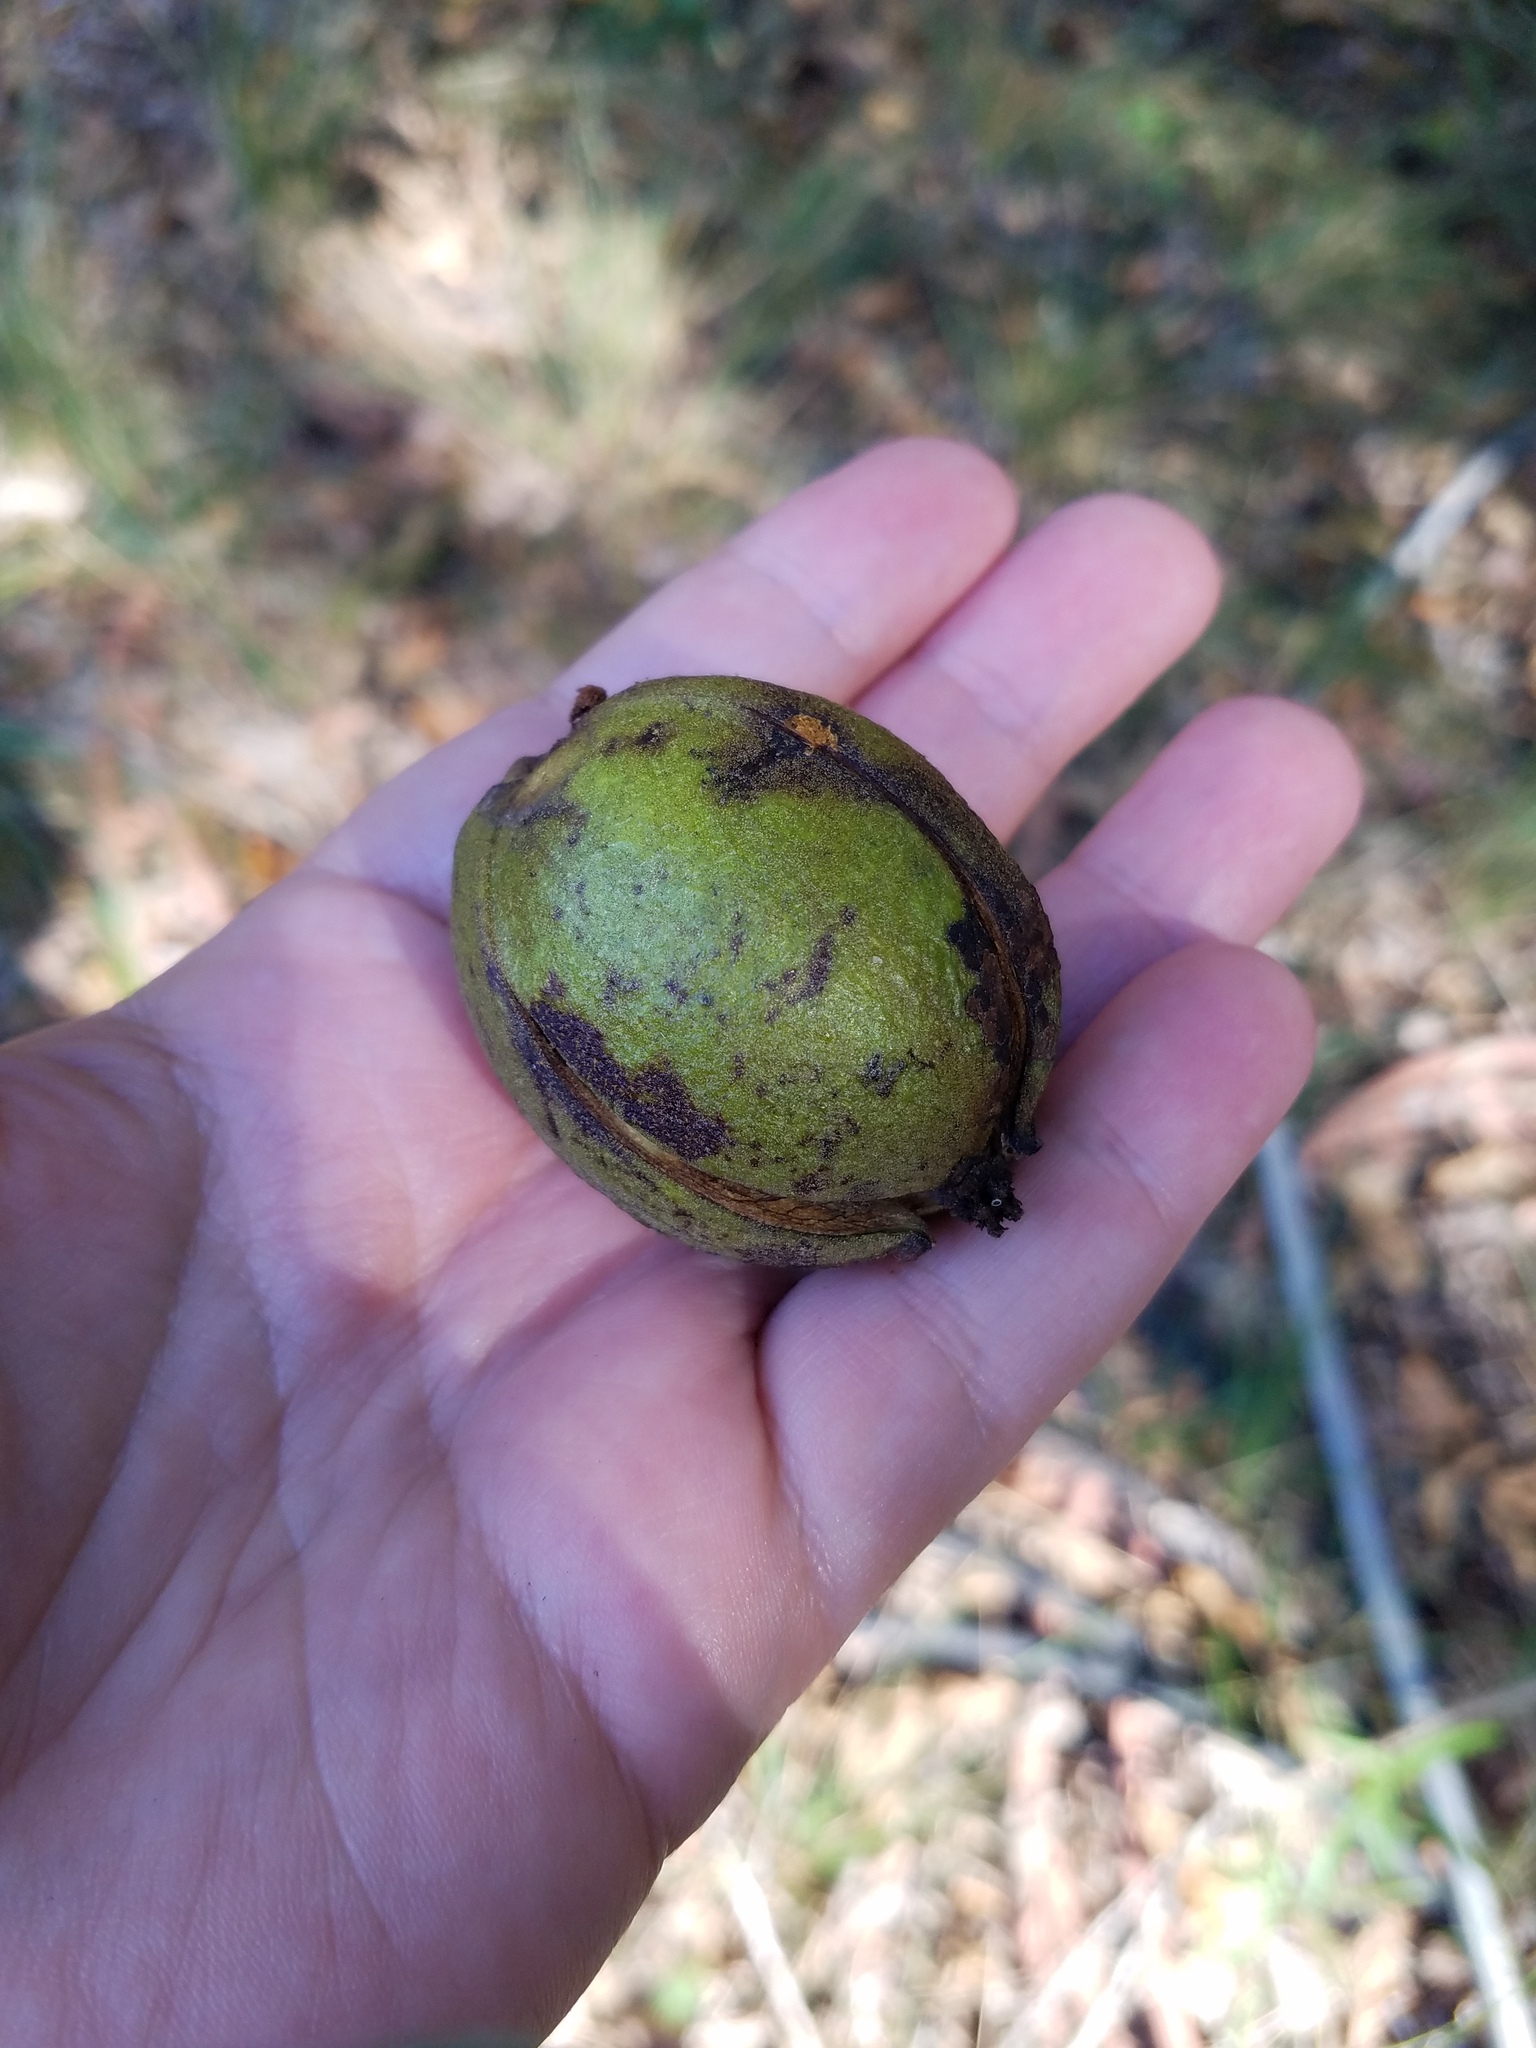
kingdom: Plantae
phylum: Tracheophyta
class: Magnoliopsida
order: Fagales
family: Juglandaceae
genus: Carya
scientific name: Carya alba
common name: Mockernut hickory
